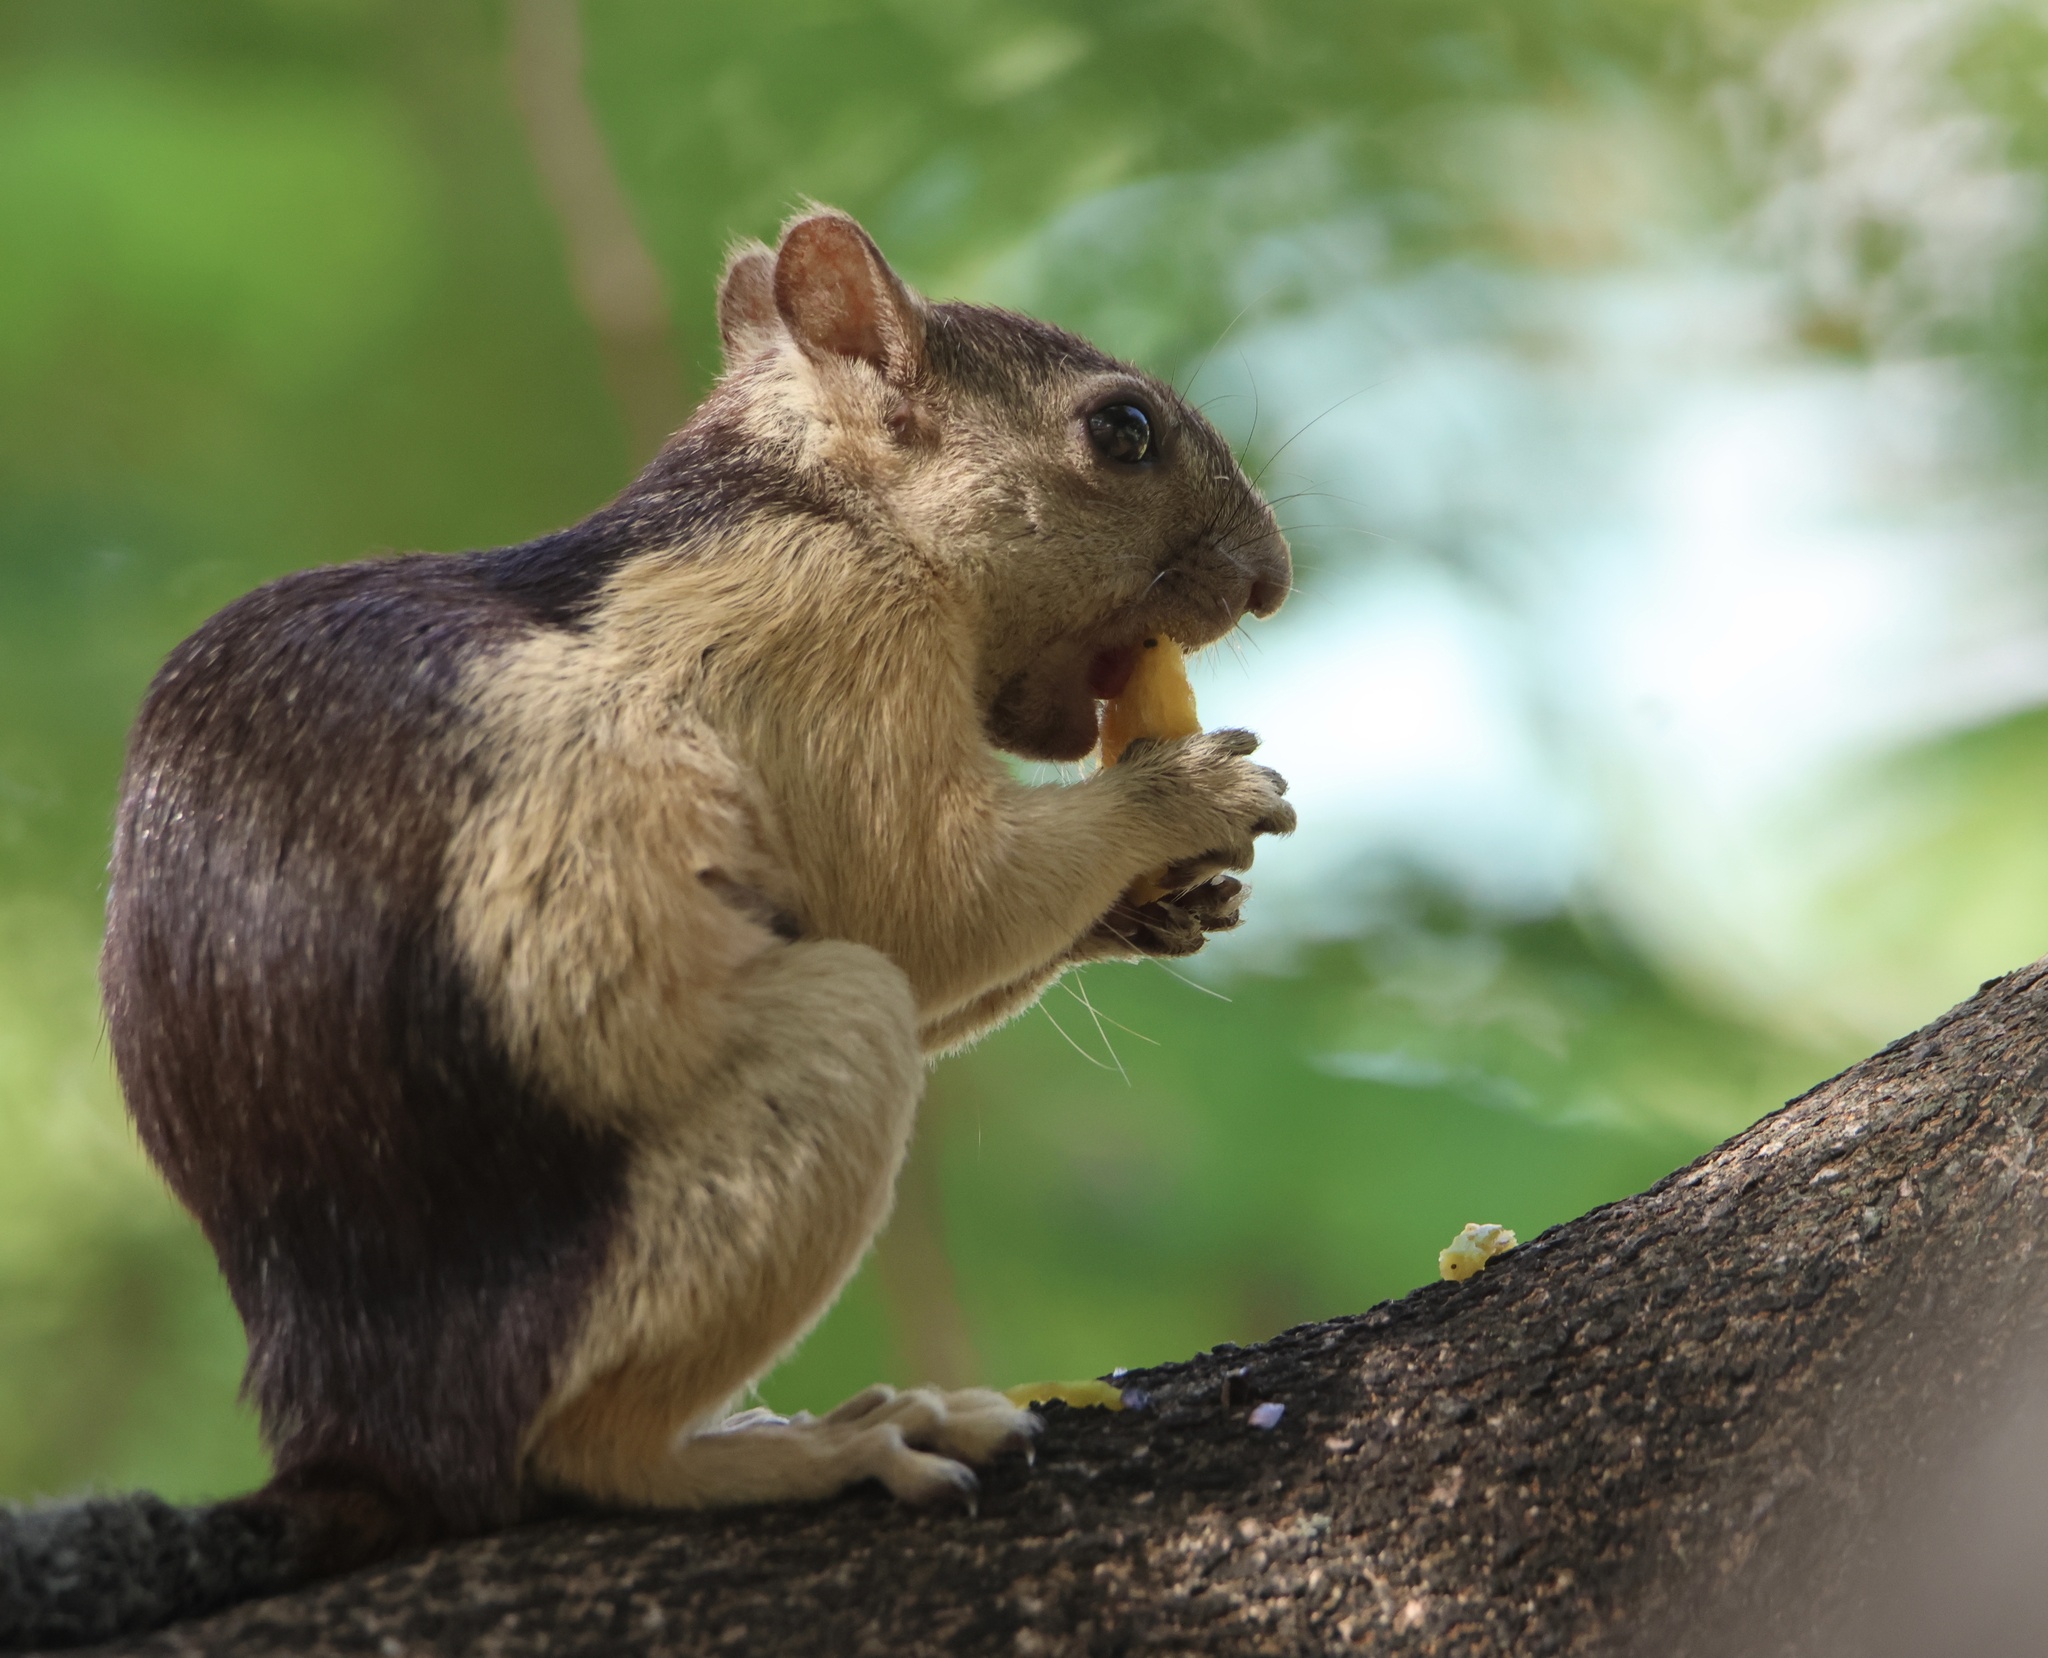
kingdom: Animalia
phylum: Chordata
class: Mammalia
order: Rodentia
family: Sciuridae
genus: Sciurus
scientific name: Sciurus variegatoides
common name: Variegated squirrel
